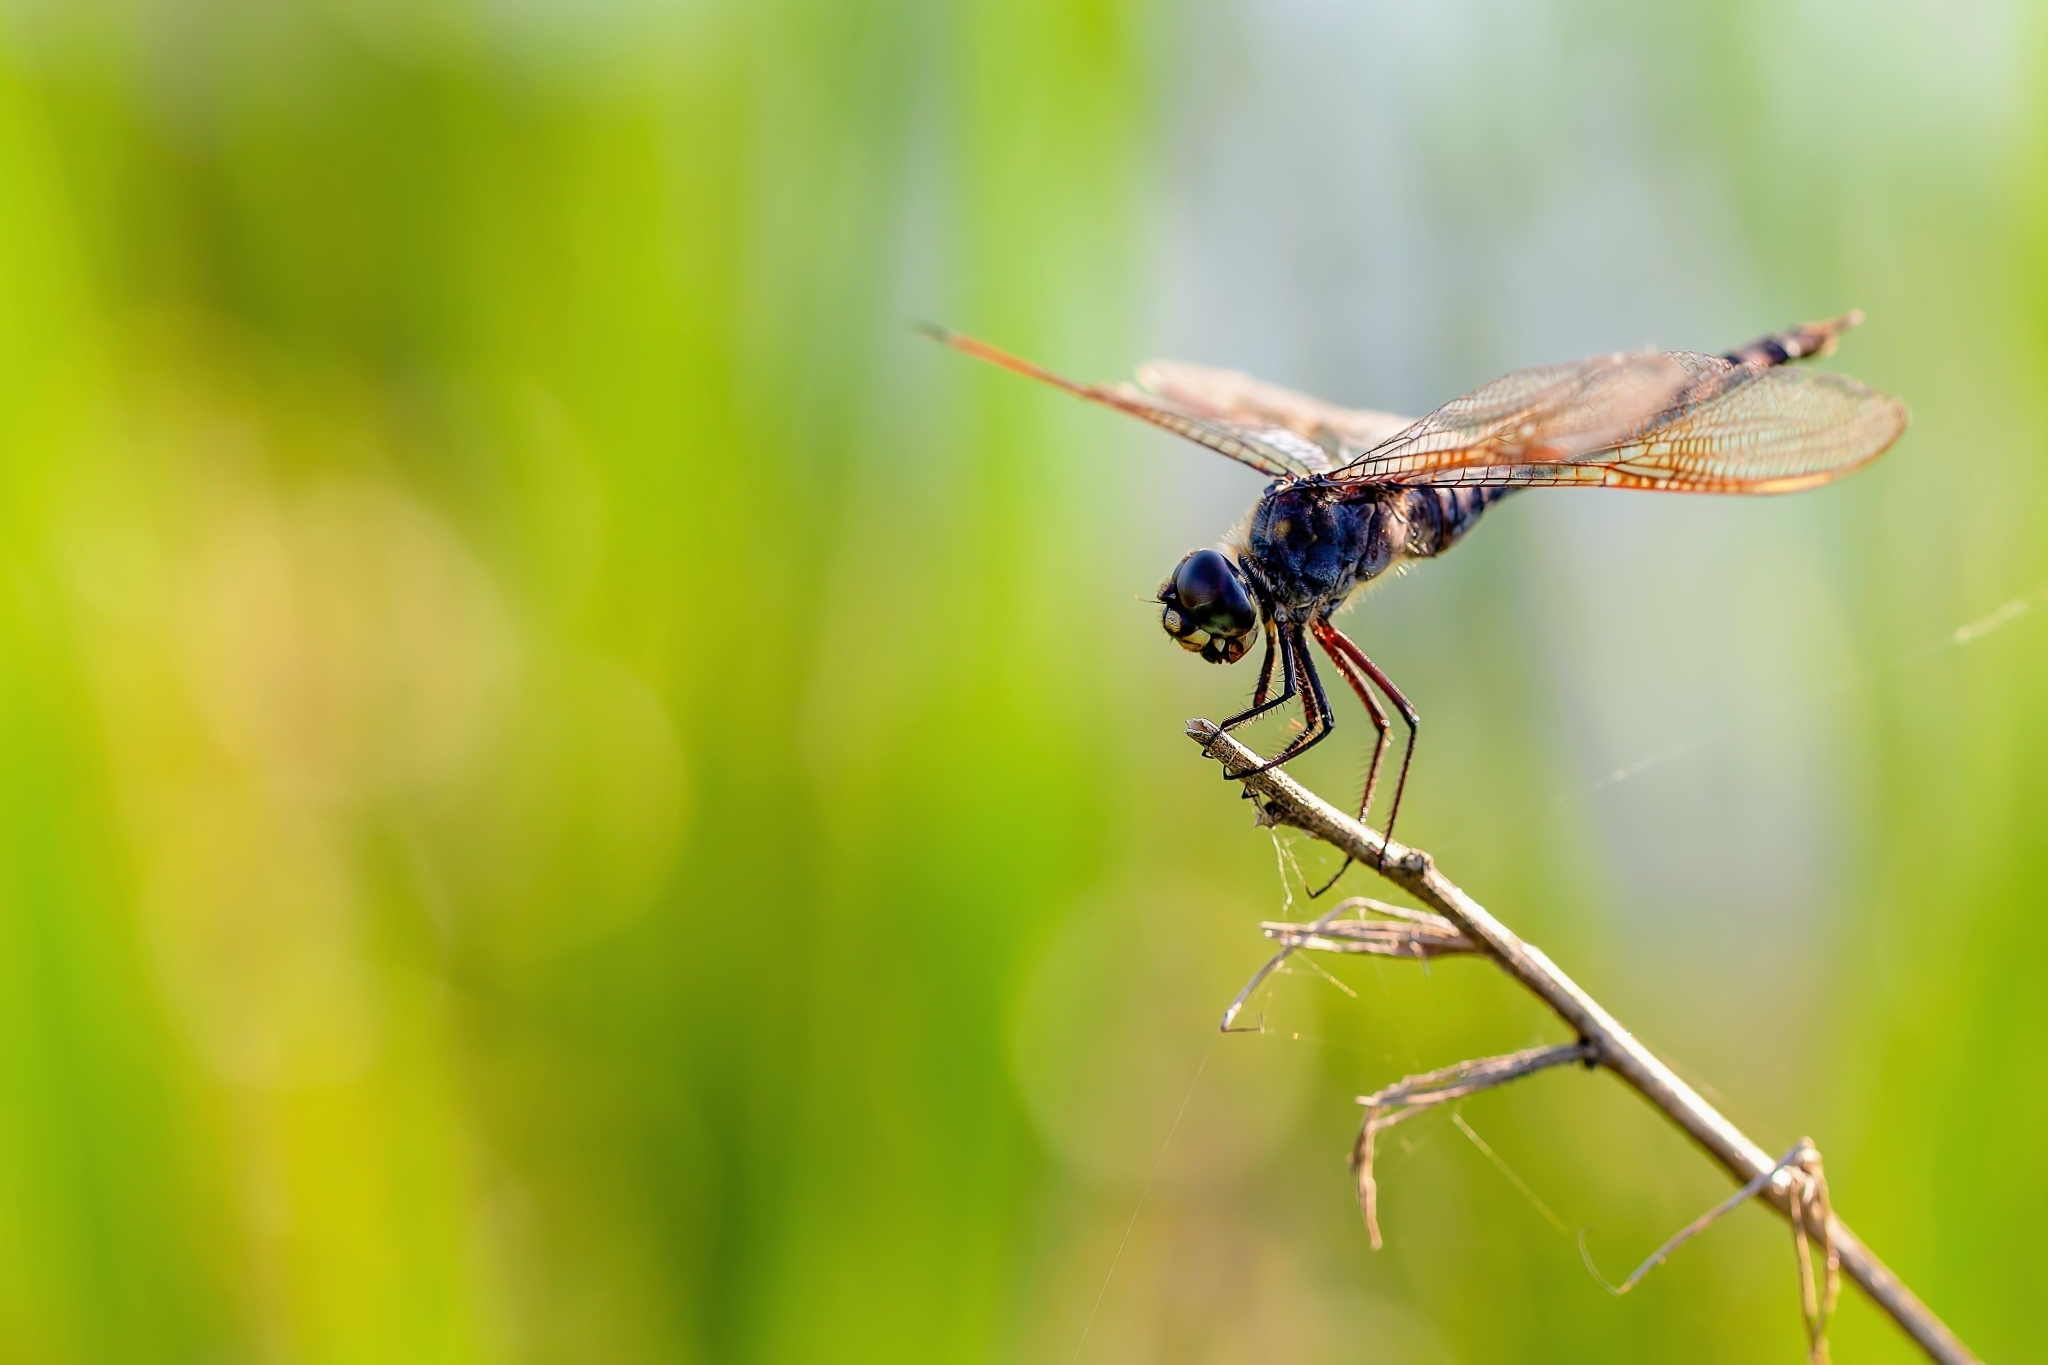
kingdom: Animalia
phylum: Arthropoda
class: Insecta
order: Odonata
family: Libellulidae
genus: Brachymesia
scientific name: Brachymesia gravida
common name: Four-spotted pennant
